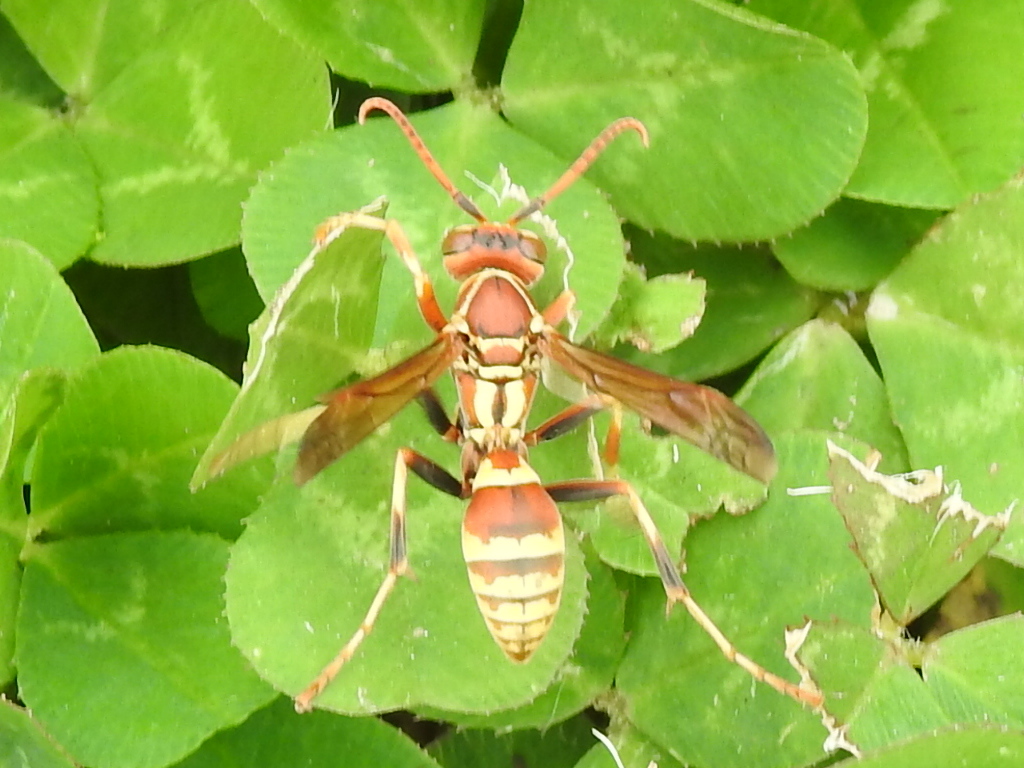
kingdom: Animalia
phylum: Arthropoda
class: Insecta
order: Hymenoptera
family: Eumenidae
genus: Polistes
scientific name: Polistes dorsalis
